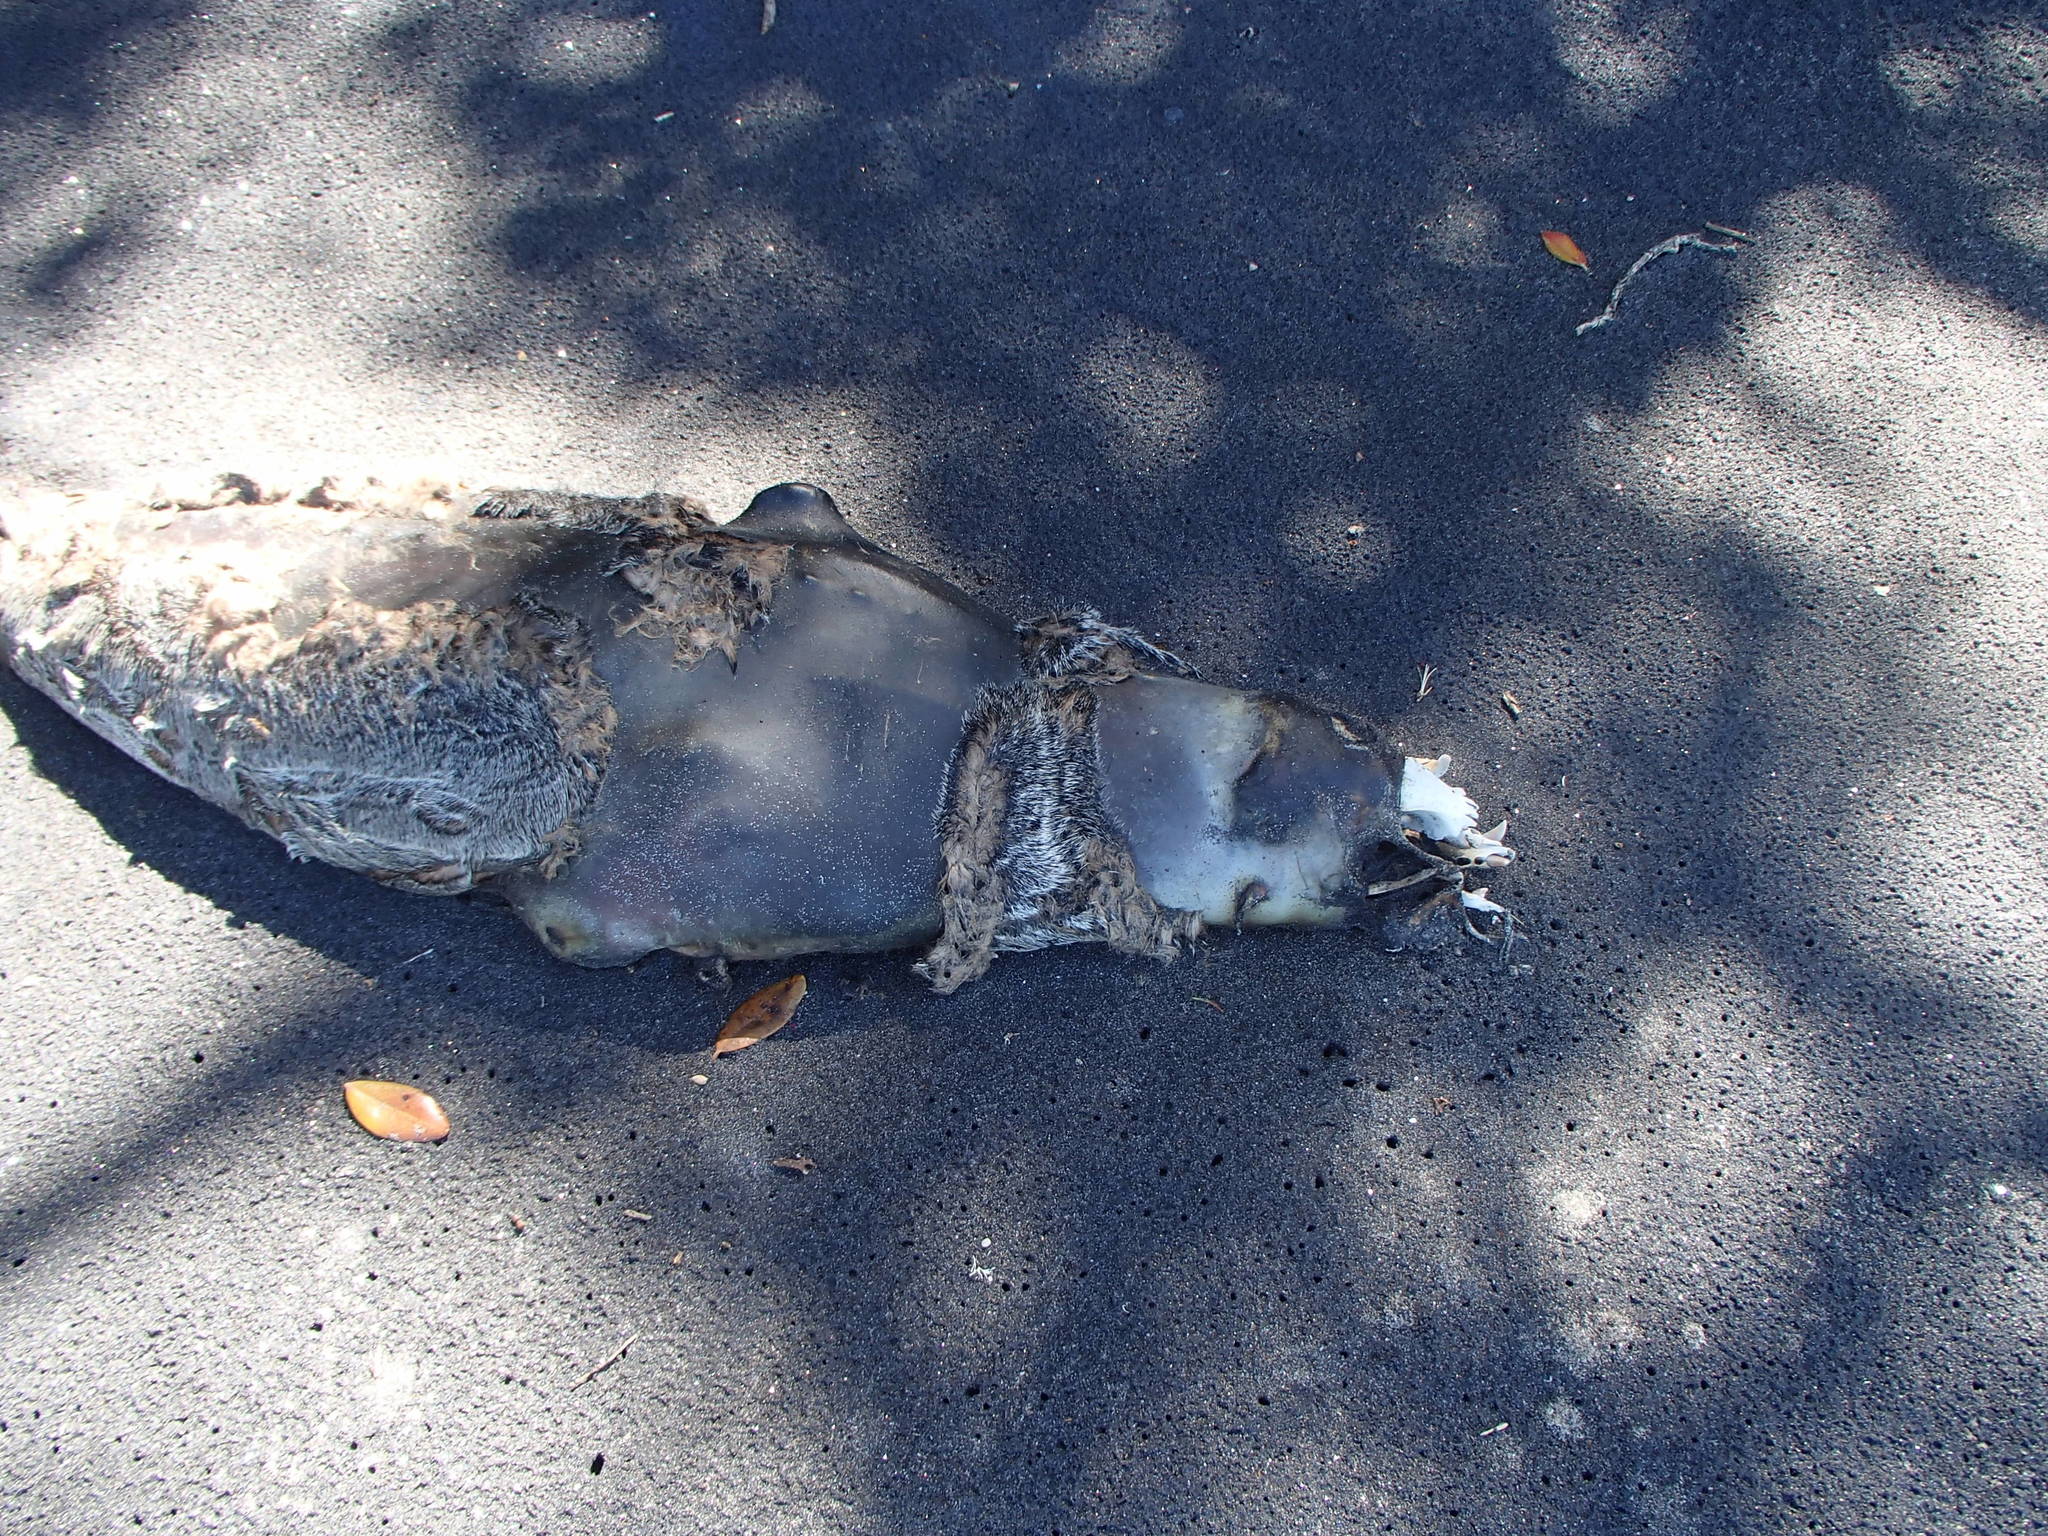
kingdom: Animalia
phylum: Chordata
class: Mammalia
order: Carnivora
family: Otariidae
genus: Arctocephalus
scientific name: Arctocephalus forsteri
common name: New zealand fur seal
